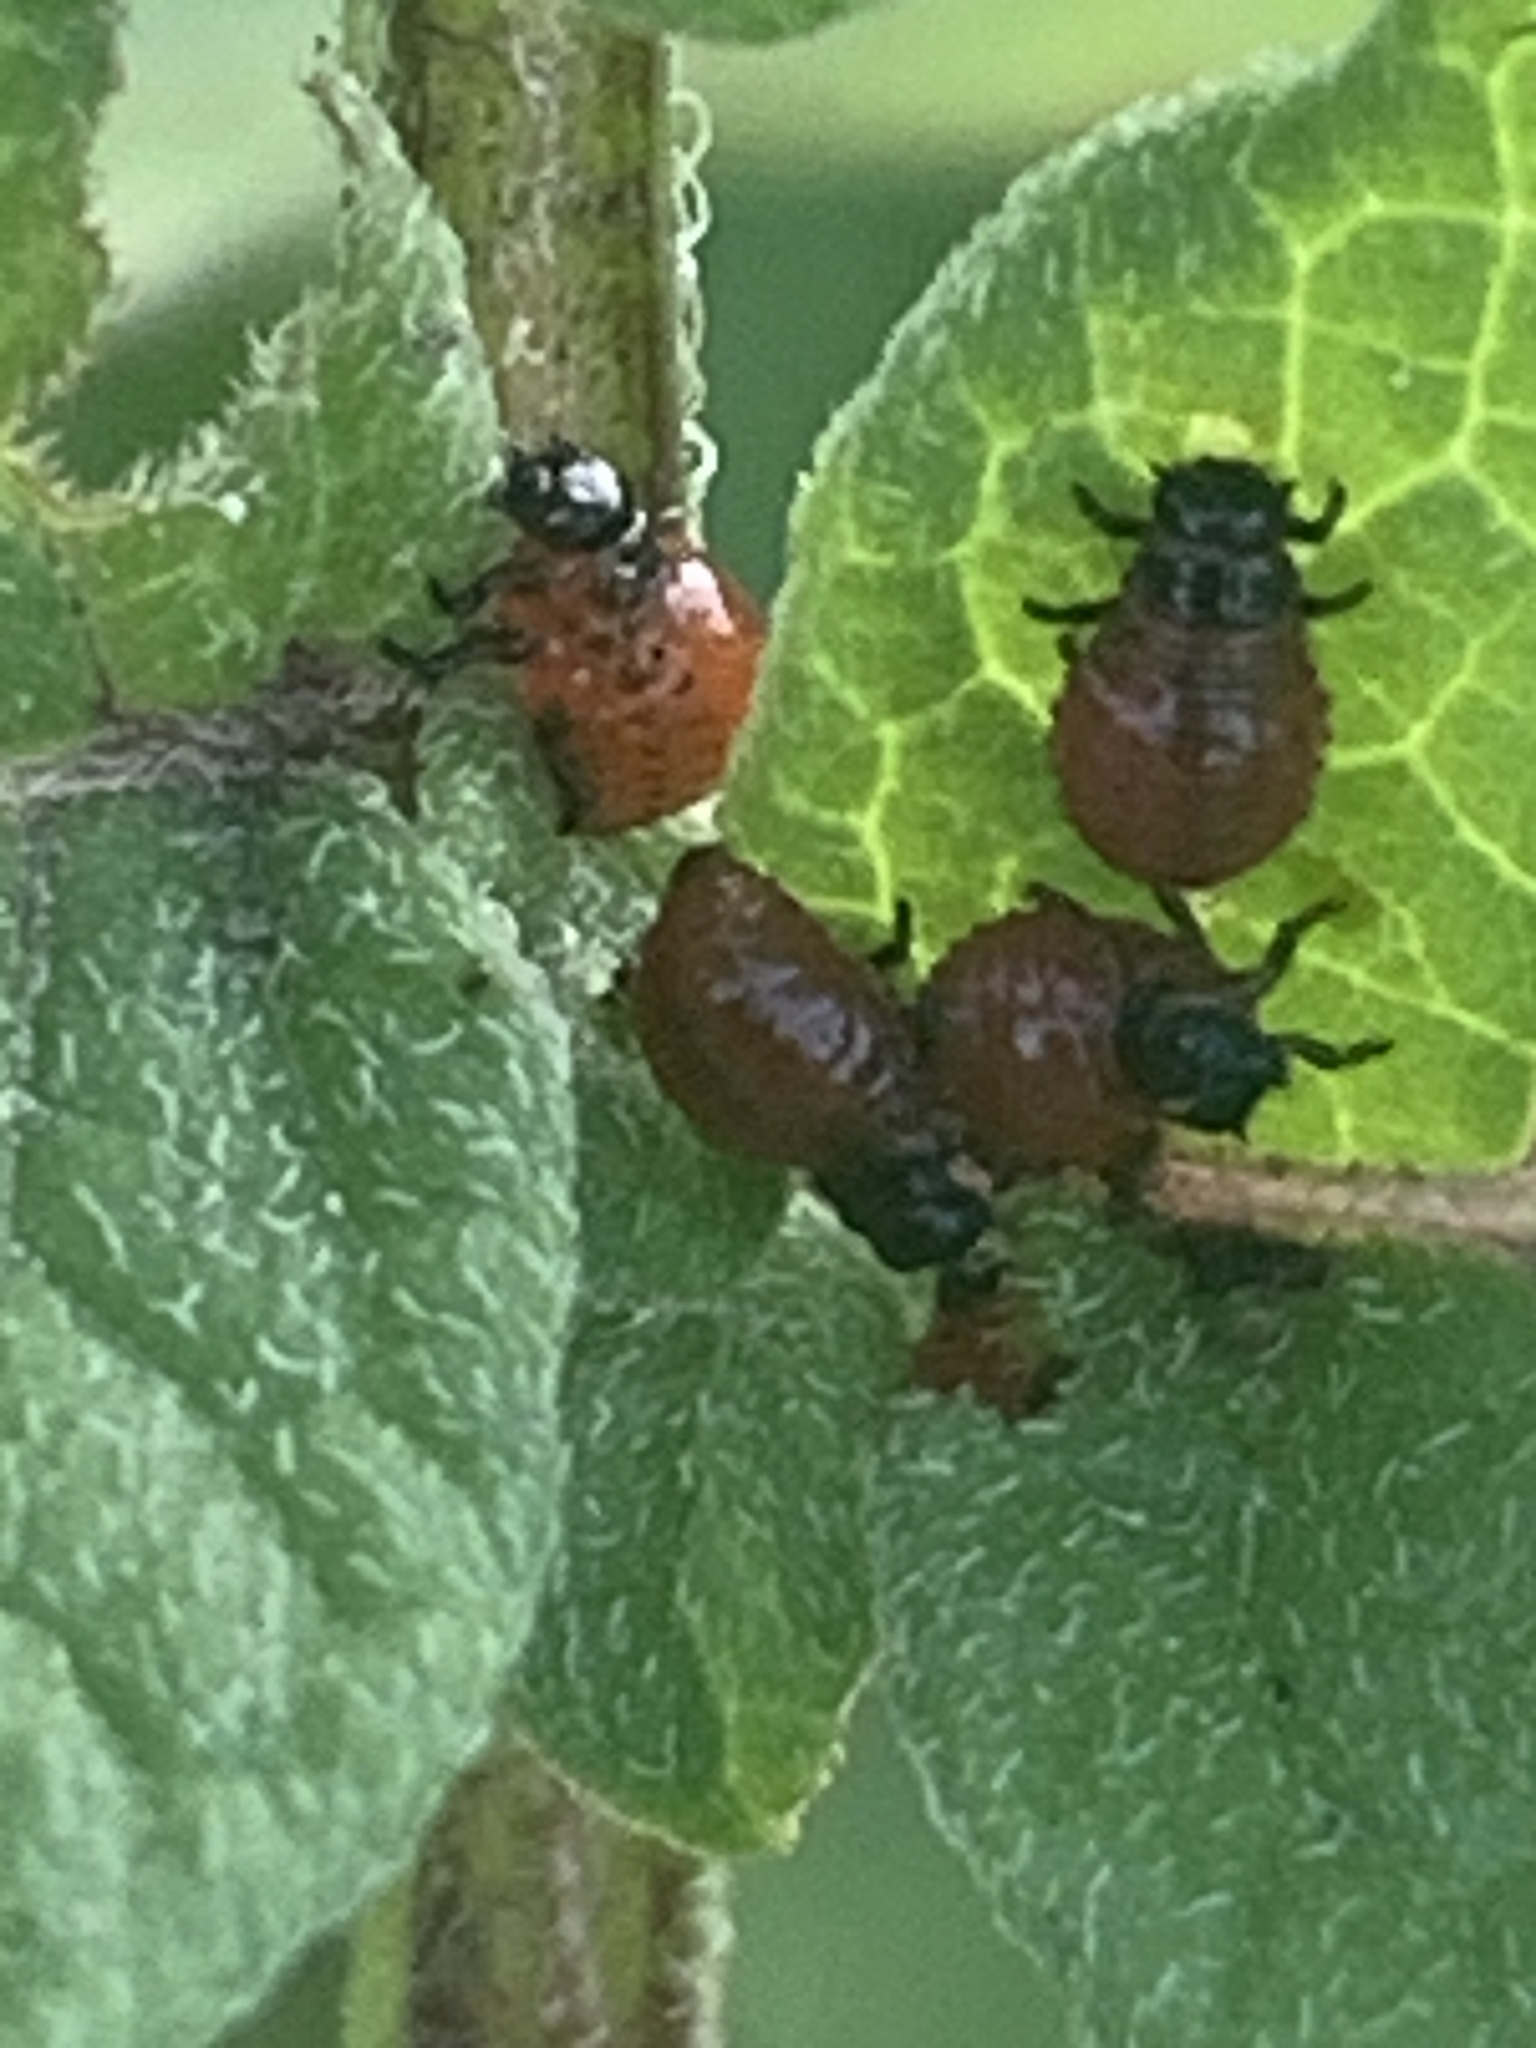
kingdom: Animalia
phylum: Arthropoda
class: Insecta
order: Coleoptera
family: Chrysomelidae
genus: Leptinotarsa
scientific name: Leptinotarsa decemlineata
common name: Colorado potato beetle
